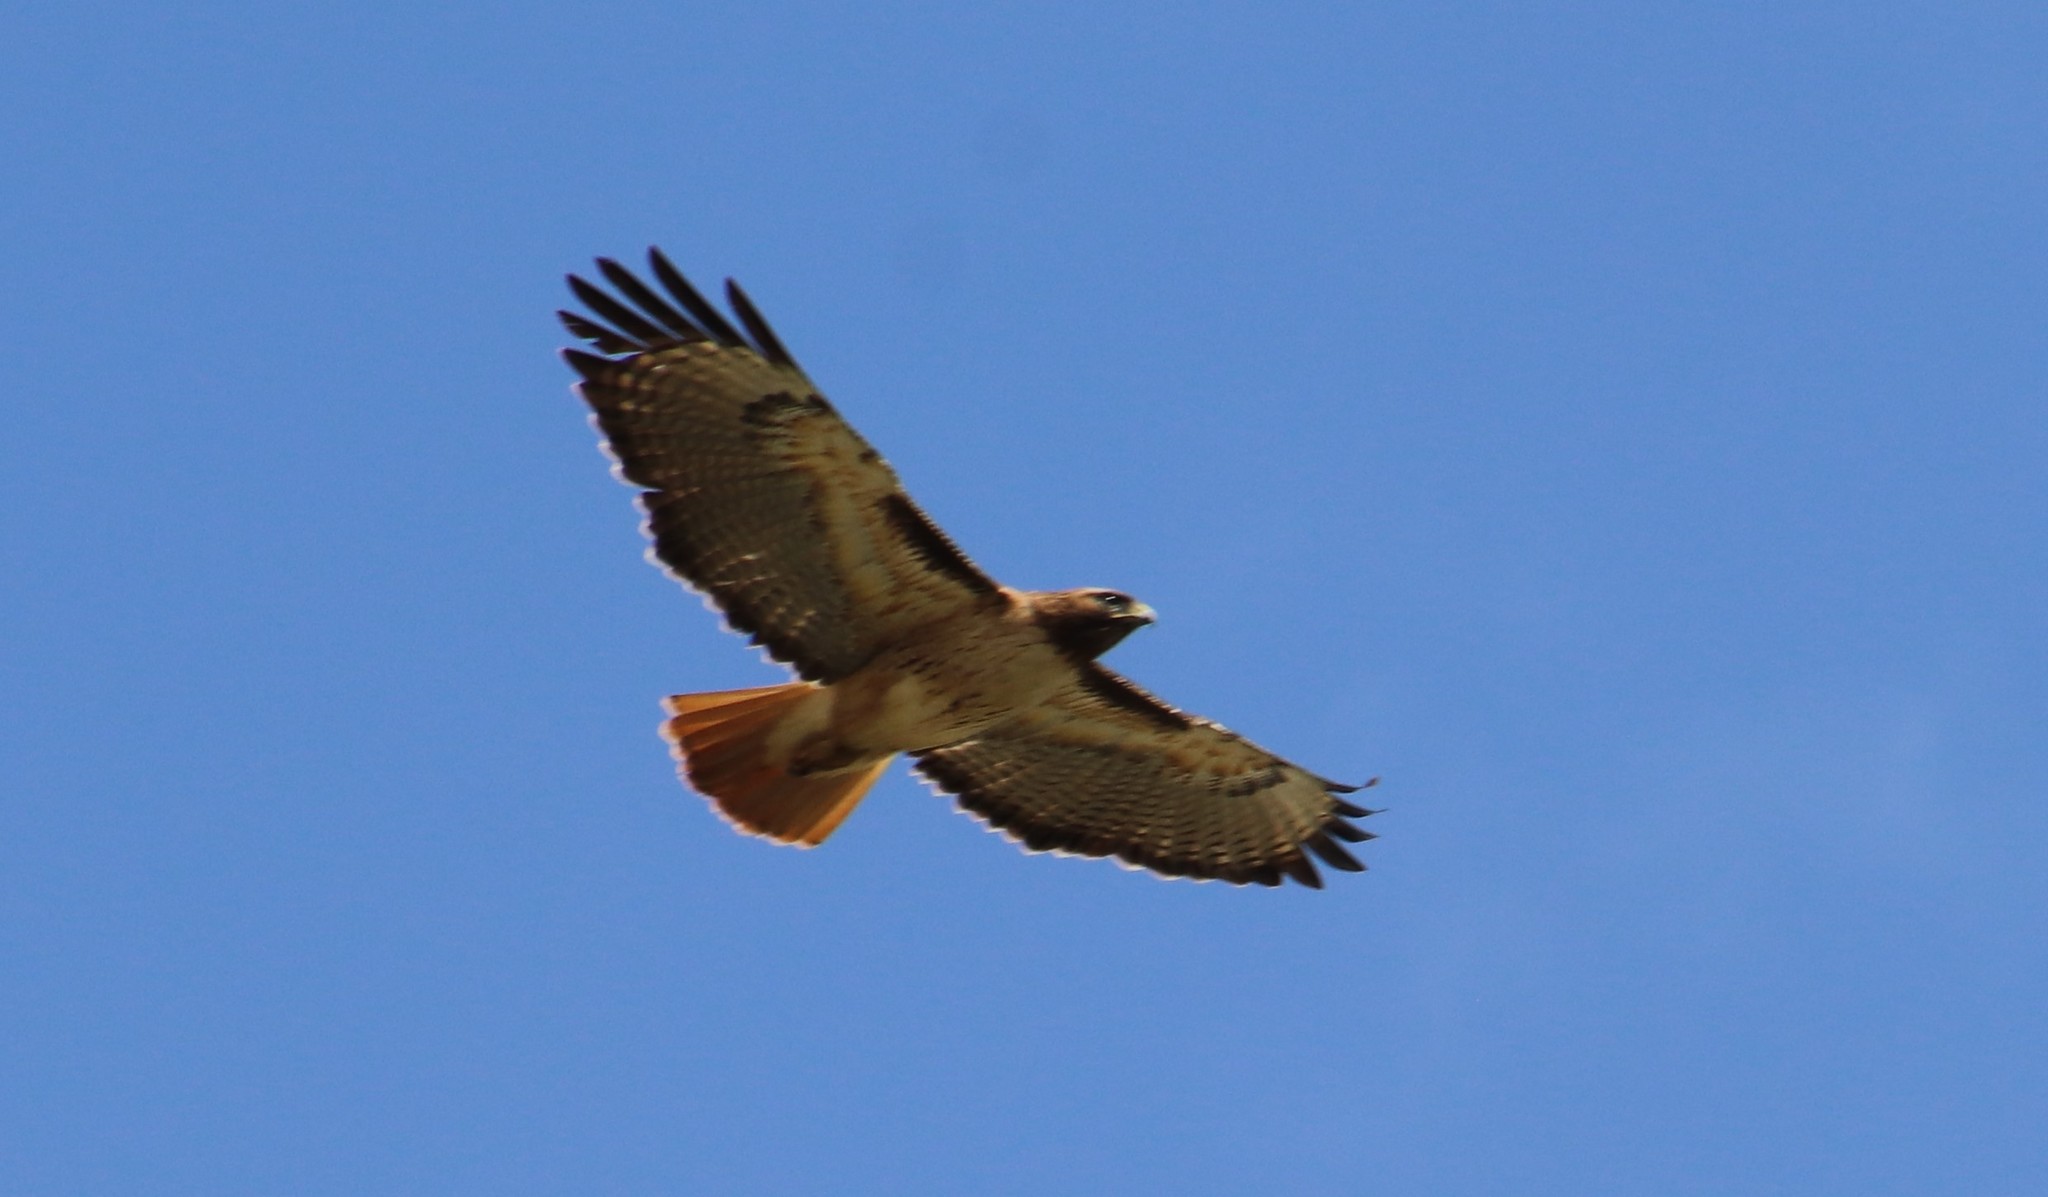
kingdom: Animalia
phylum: Chordata
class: Aves
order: Accipitriformes
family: Accipitridae
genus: Buteo
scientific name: Buteo jamaicensis
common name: Red-tailed hawk
